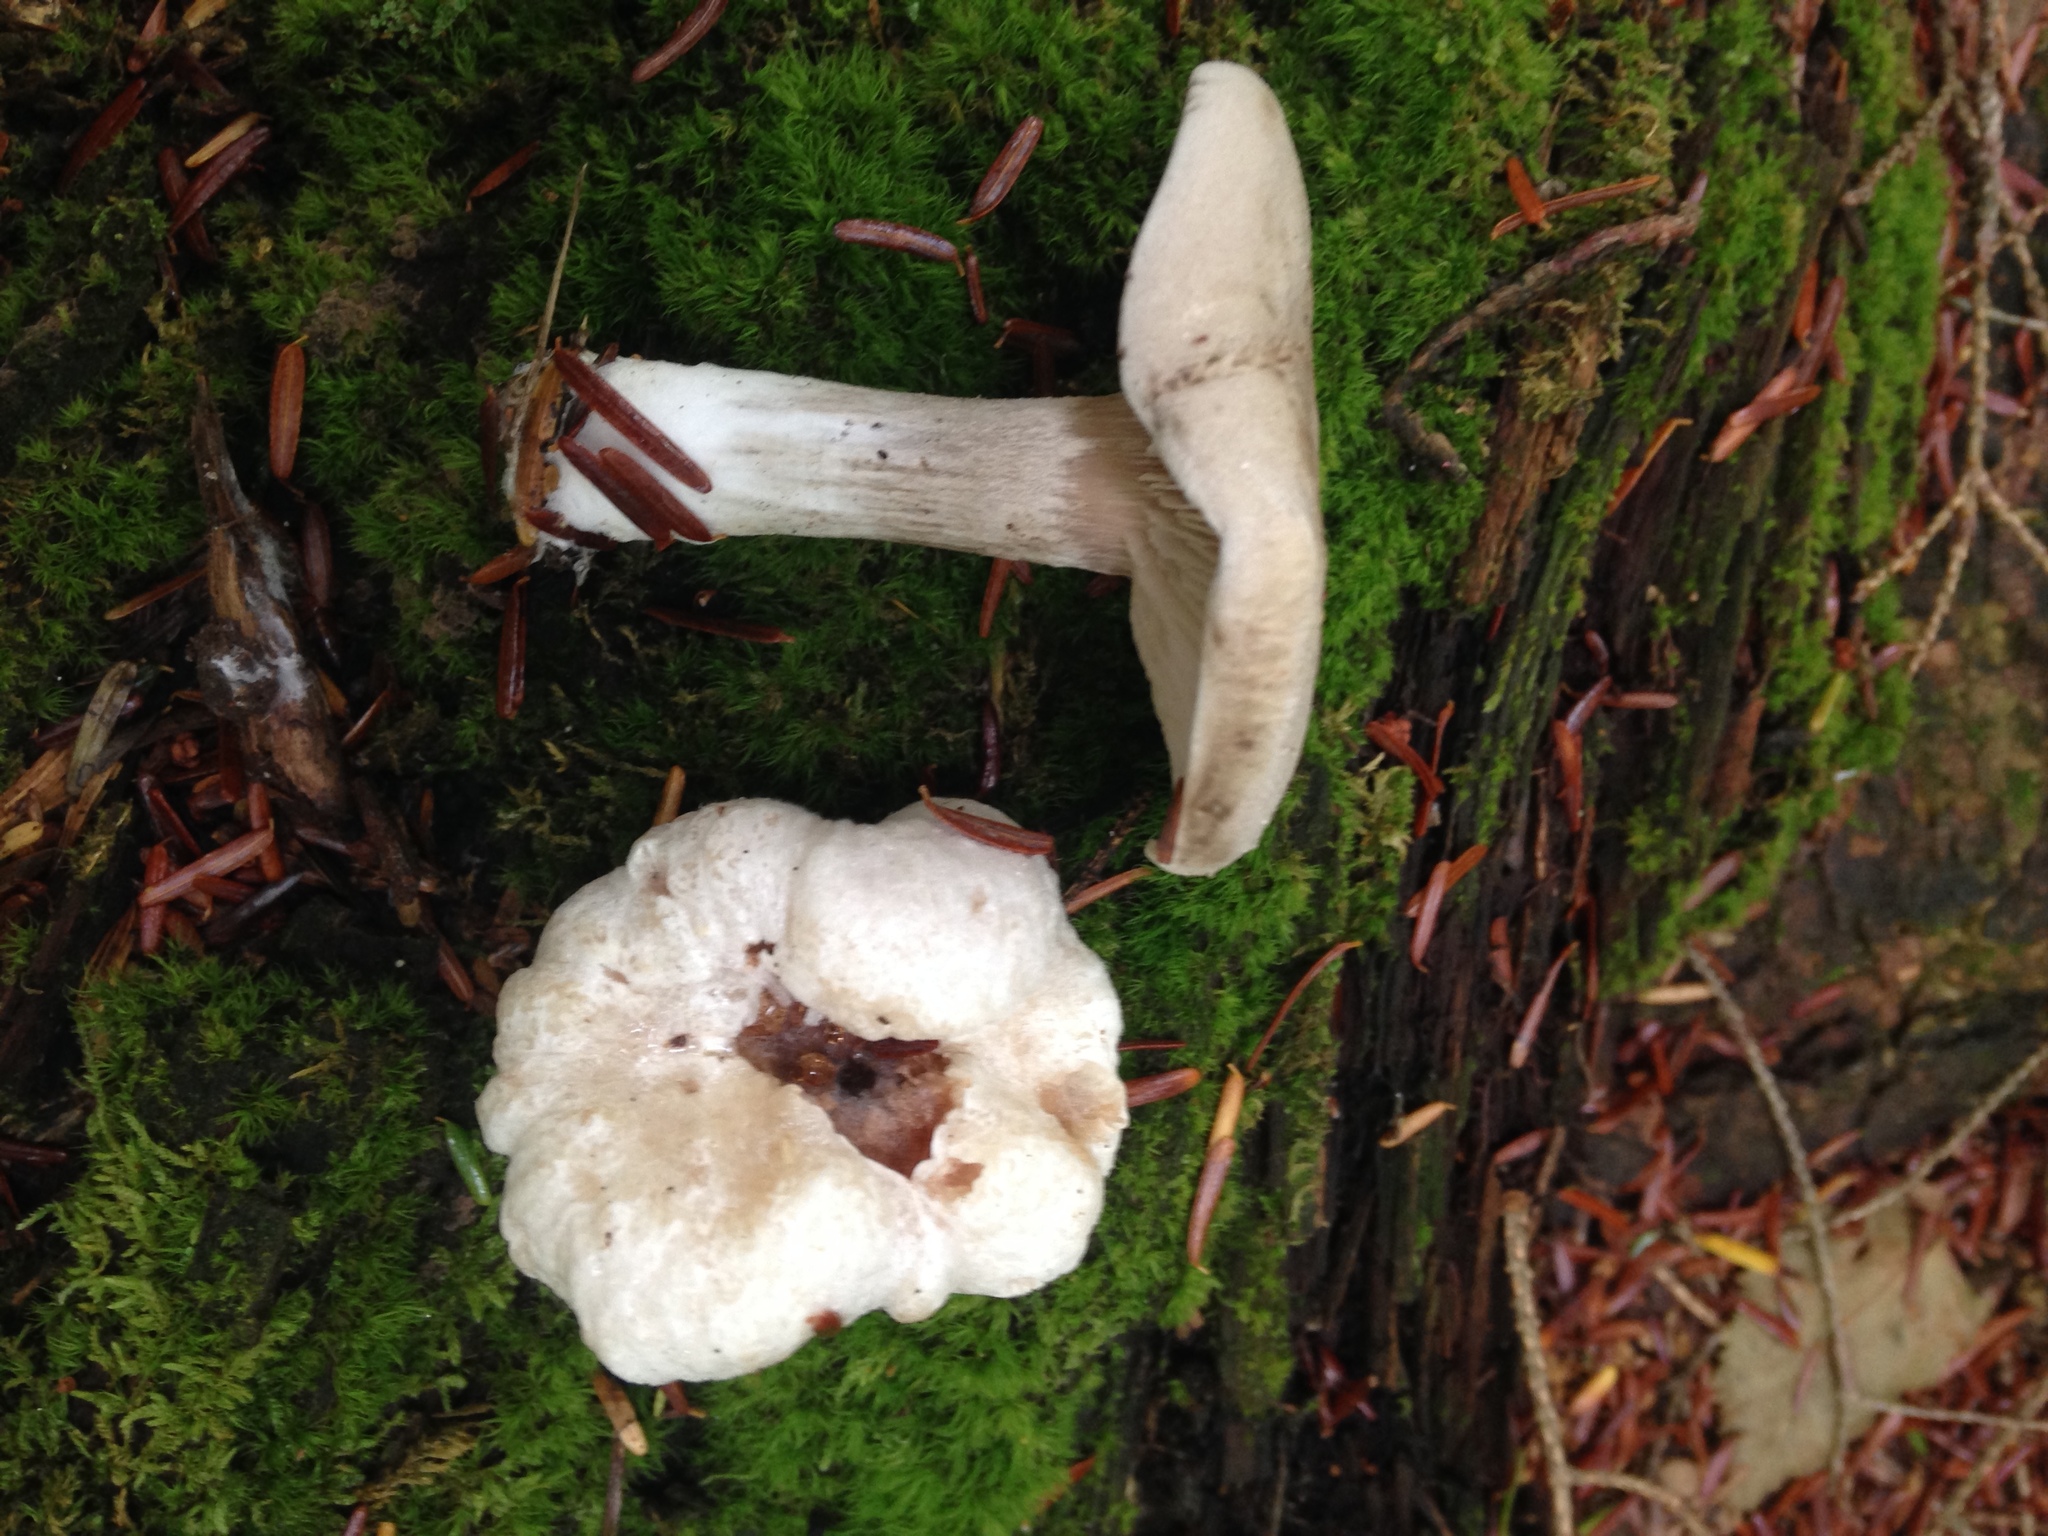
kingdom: Fungi
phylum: Basidiomycota
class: Agaricomycetes
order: Agaricales
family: Entolomataceae
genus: Entoloma
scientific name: Entoloma abortivum
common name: Aborted entoloma
